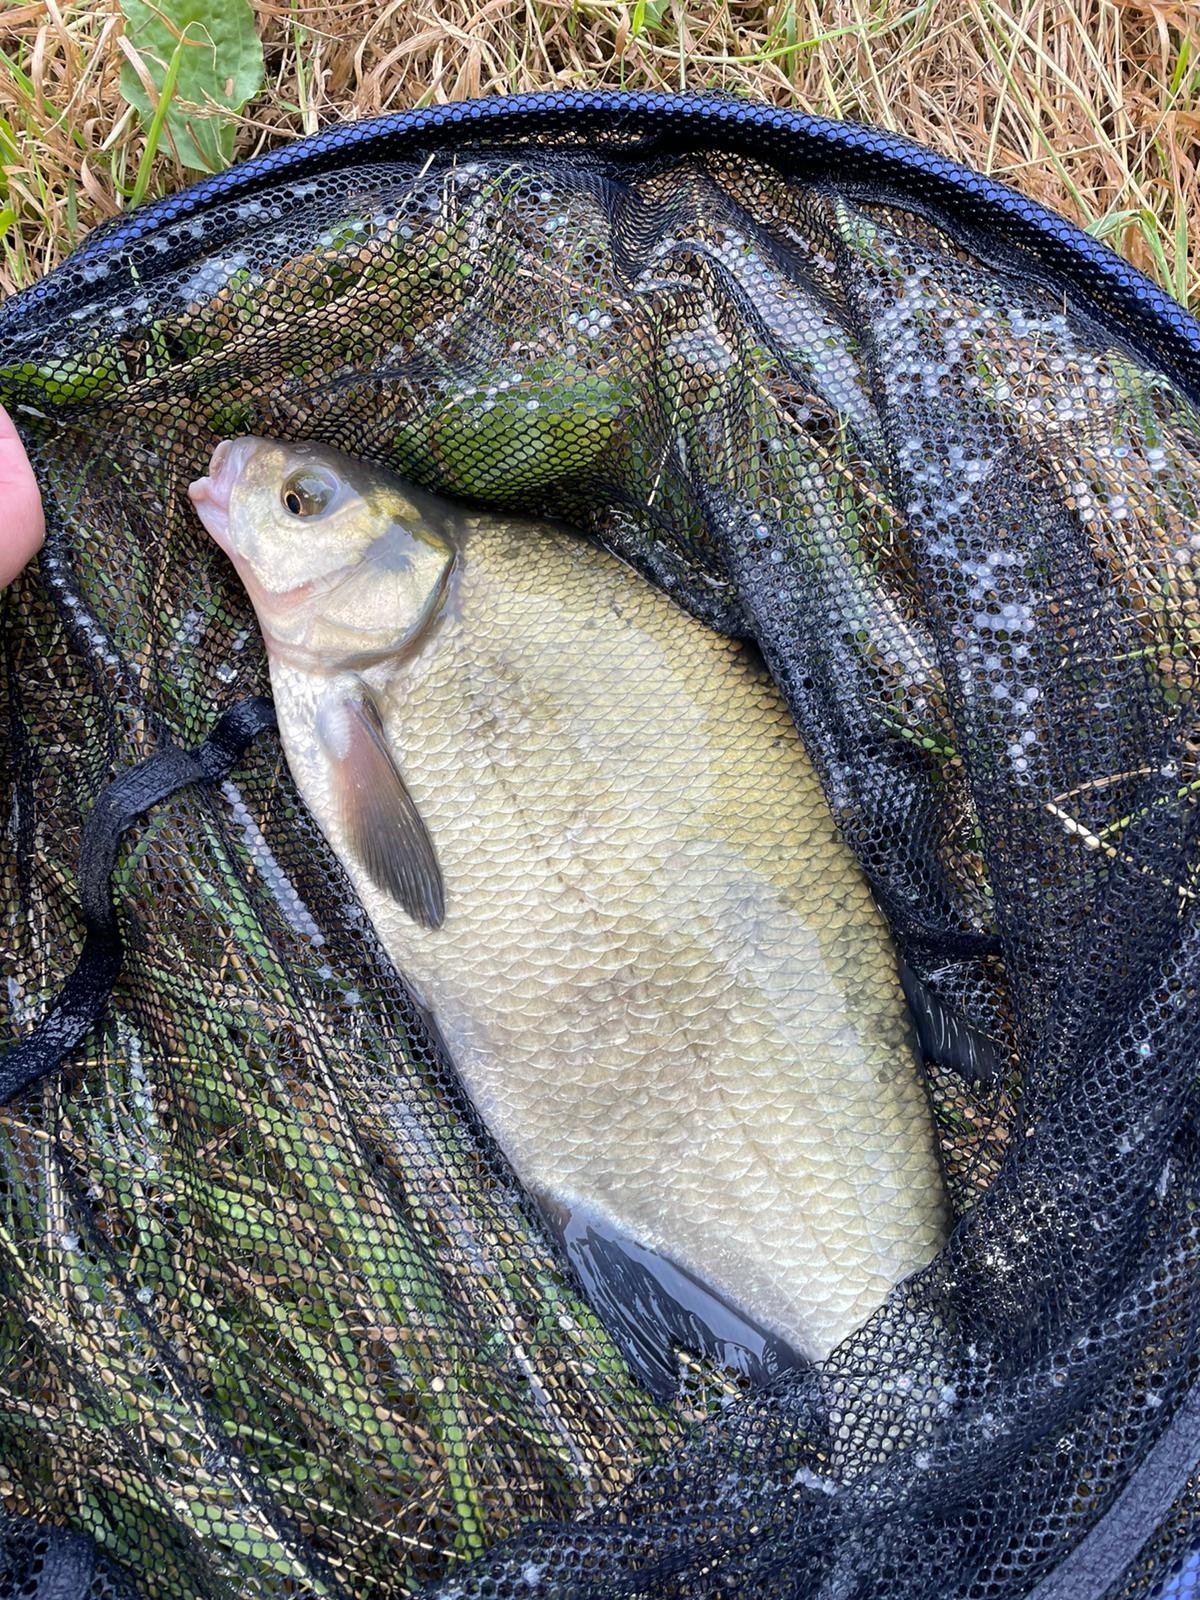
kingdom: Animalia
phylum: Chordata
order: Cypriniformes
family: Cyprinidae
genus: Abramis
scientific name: Abramis brama
